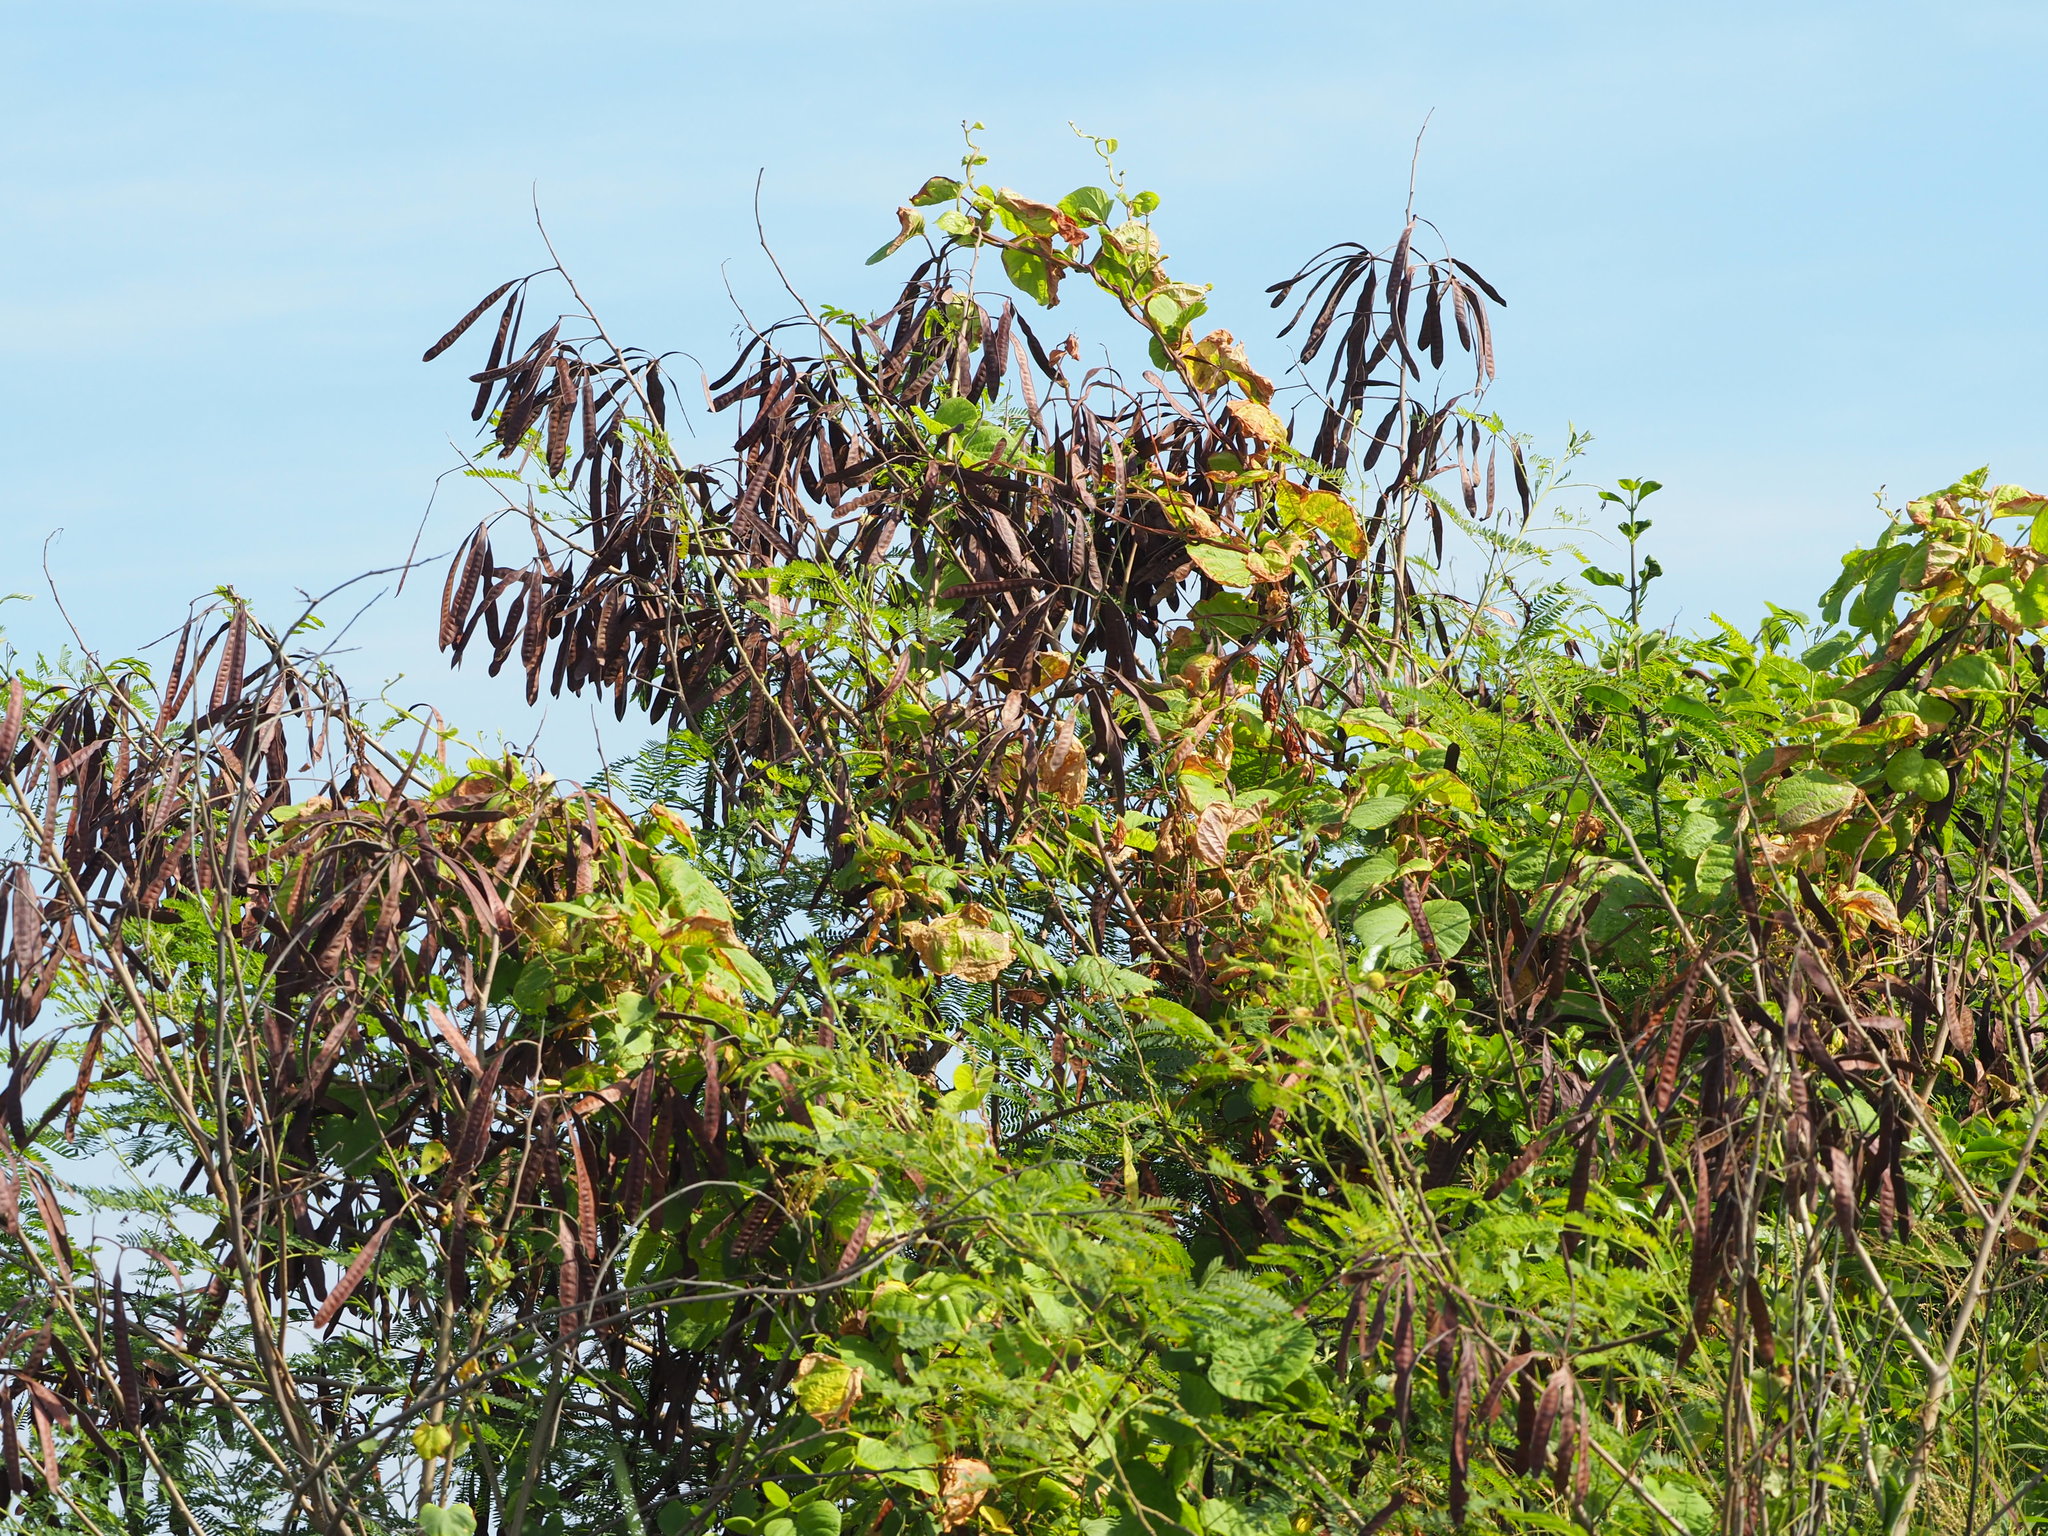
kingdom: Plantae
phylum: Tracheophyta
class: Magnoliopsida
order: Fabales
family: Fabaceae
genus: Leucaena
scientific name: Leucaena leucocephala
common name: White leadtree
